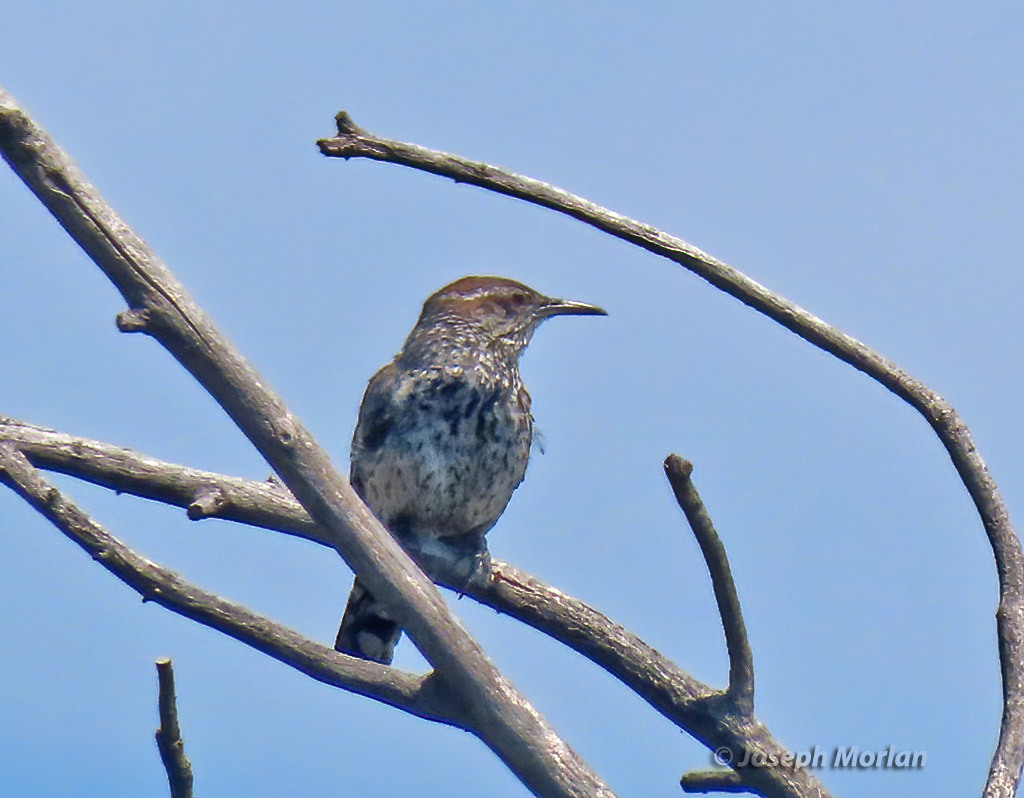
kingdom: Animalia
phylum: Chordata
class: Aves
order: Passeriformes
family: Troglodytidae
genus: Campylorhynchus
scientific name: Campylorhynchus brunneicapillus
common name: Cactus wren
